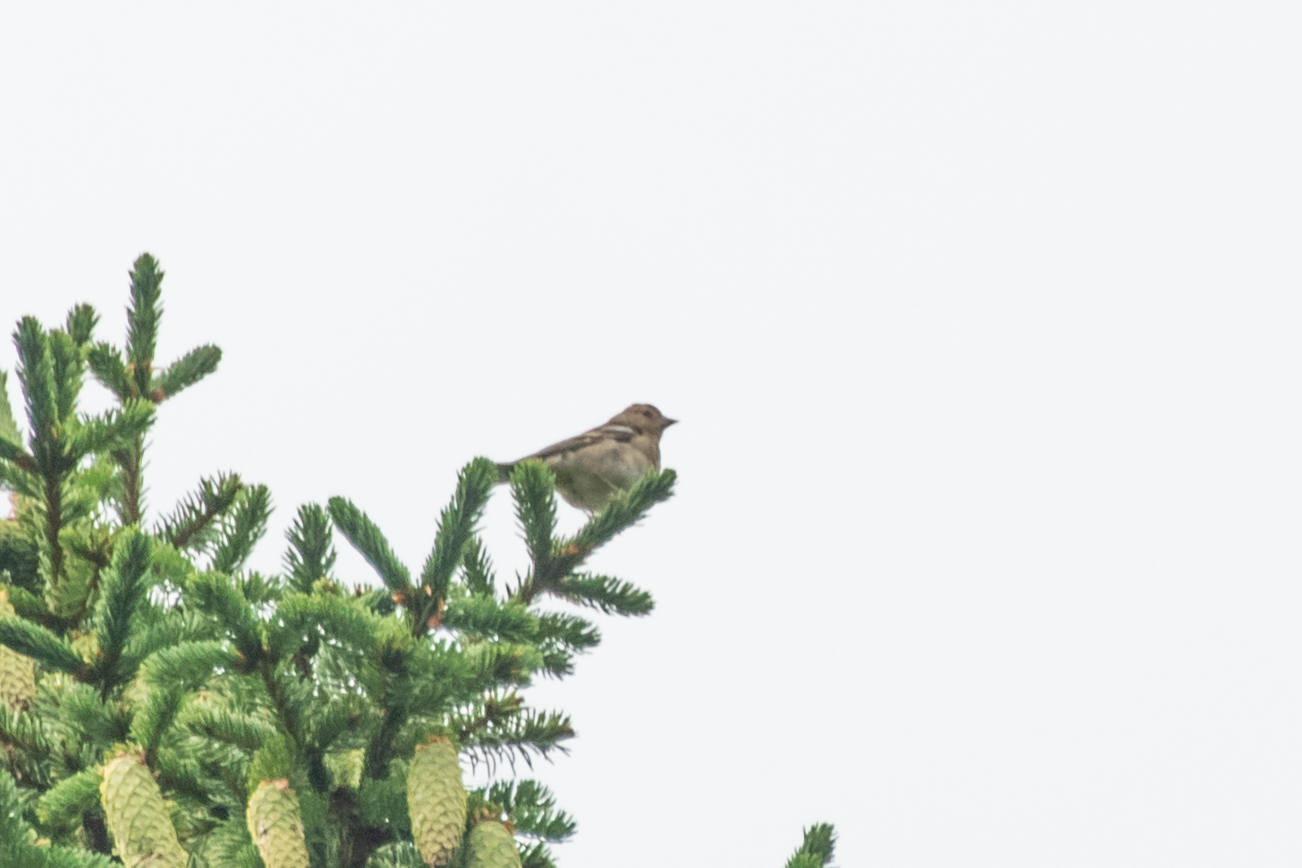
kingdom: Animalia
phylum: Chordata
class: Aves
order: Passeriformes
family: Fringillidae
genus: Fringilla
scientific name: Fringilla coelebs
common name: Common chaffinch
